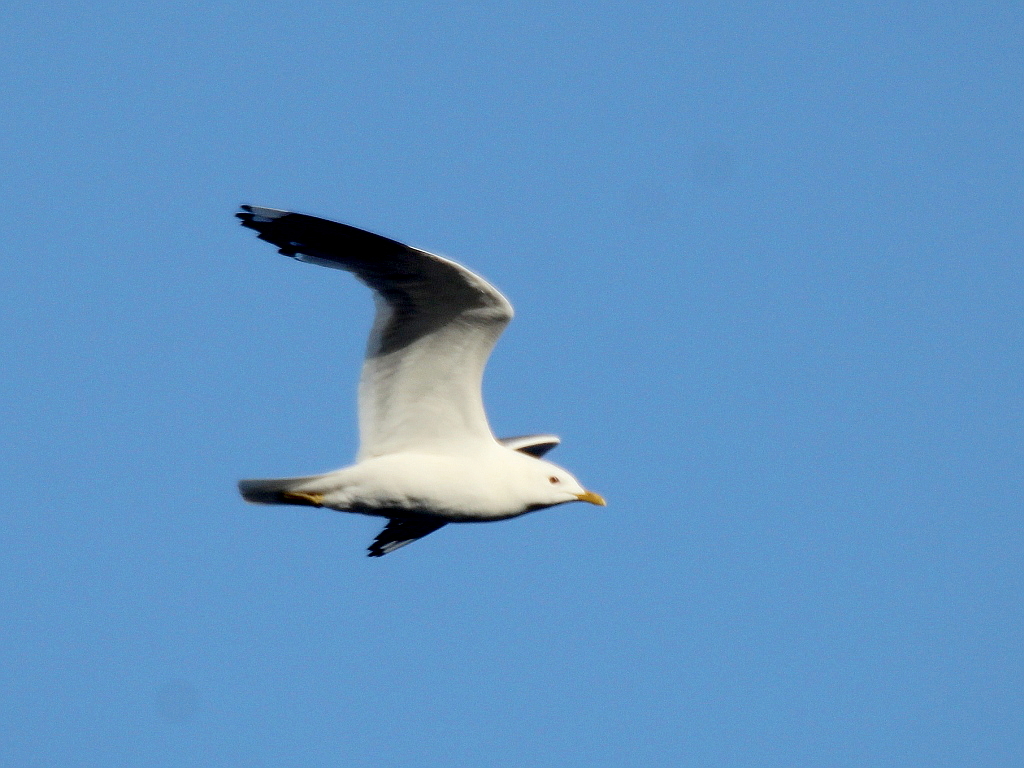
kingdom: Animalia
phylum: Chordata
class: Aves
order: Charadriiformes
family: Laridae
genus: Larus
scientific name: Larus canus
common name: Mew gull
